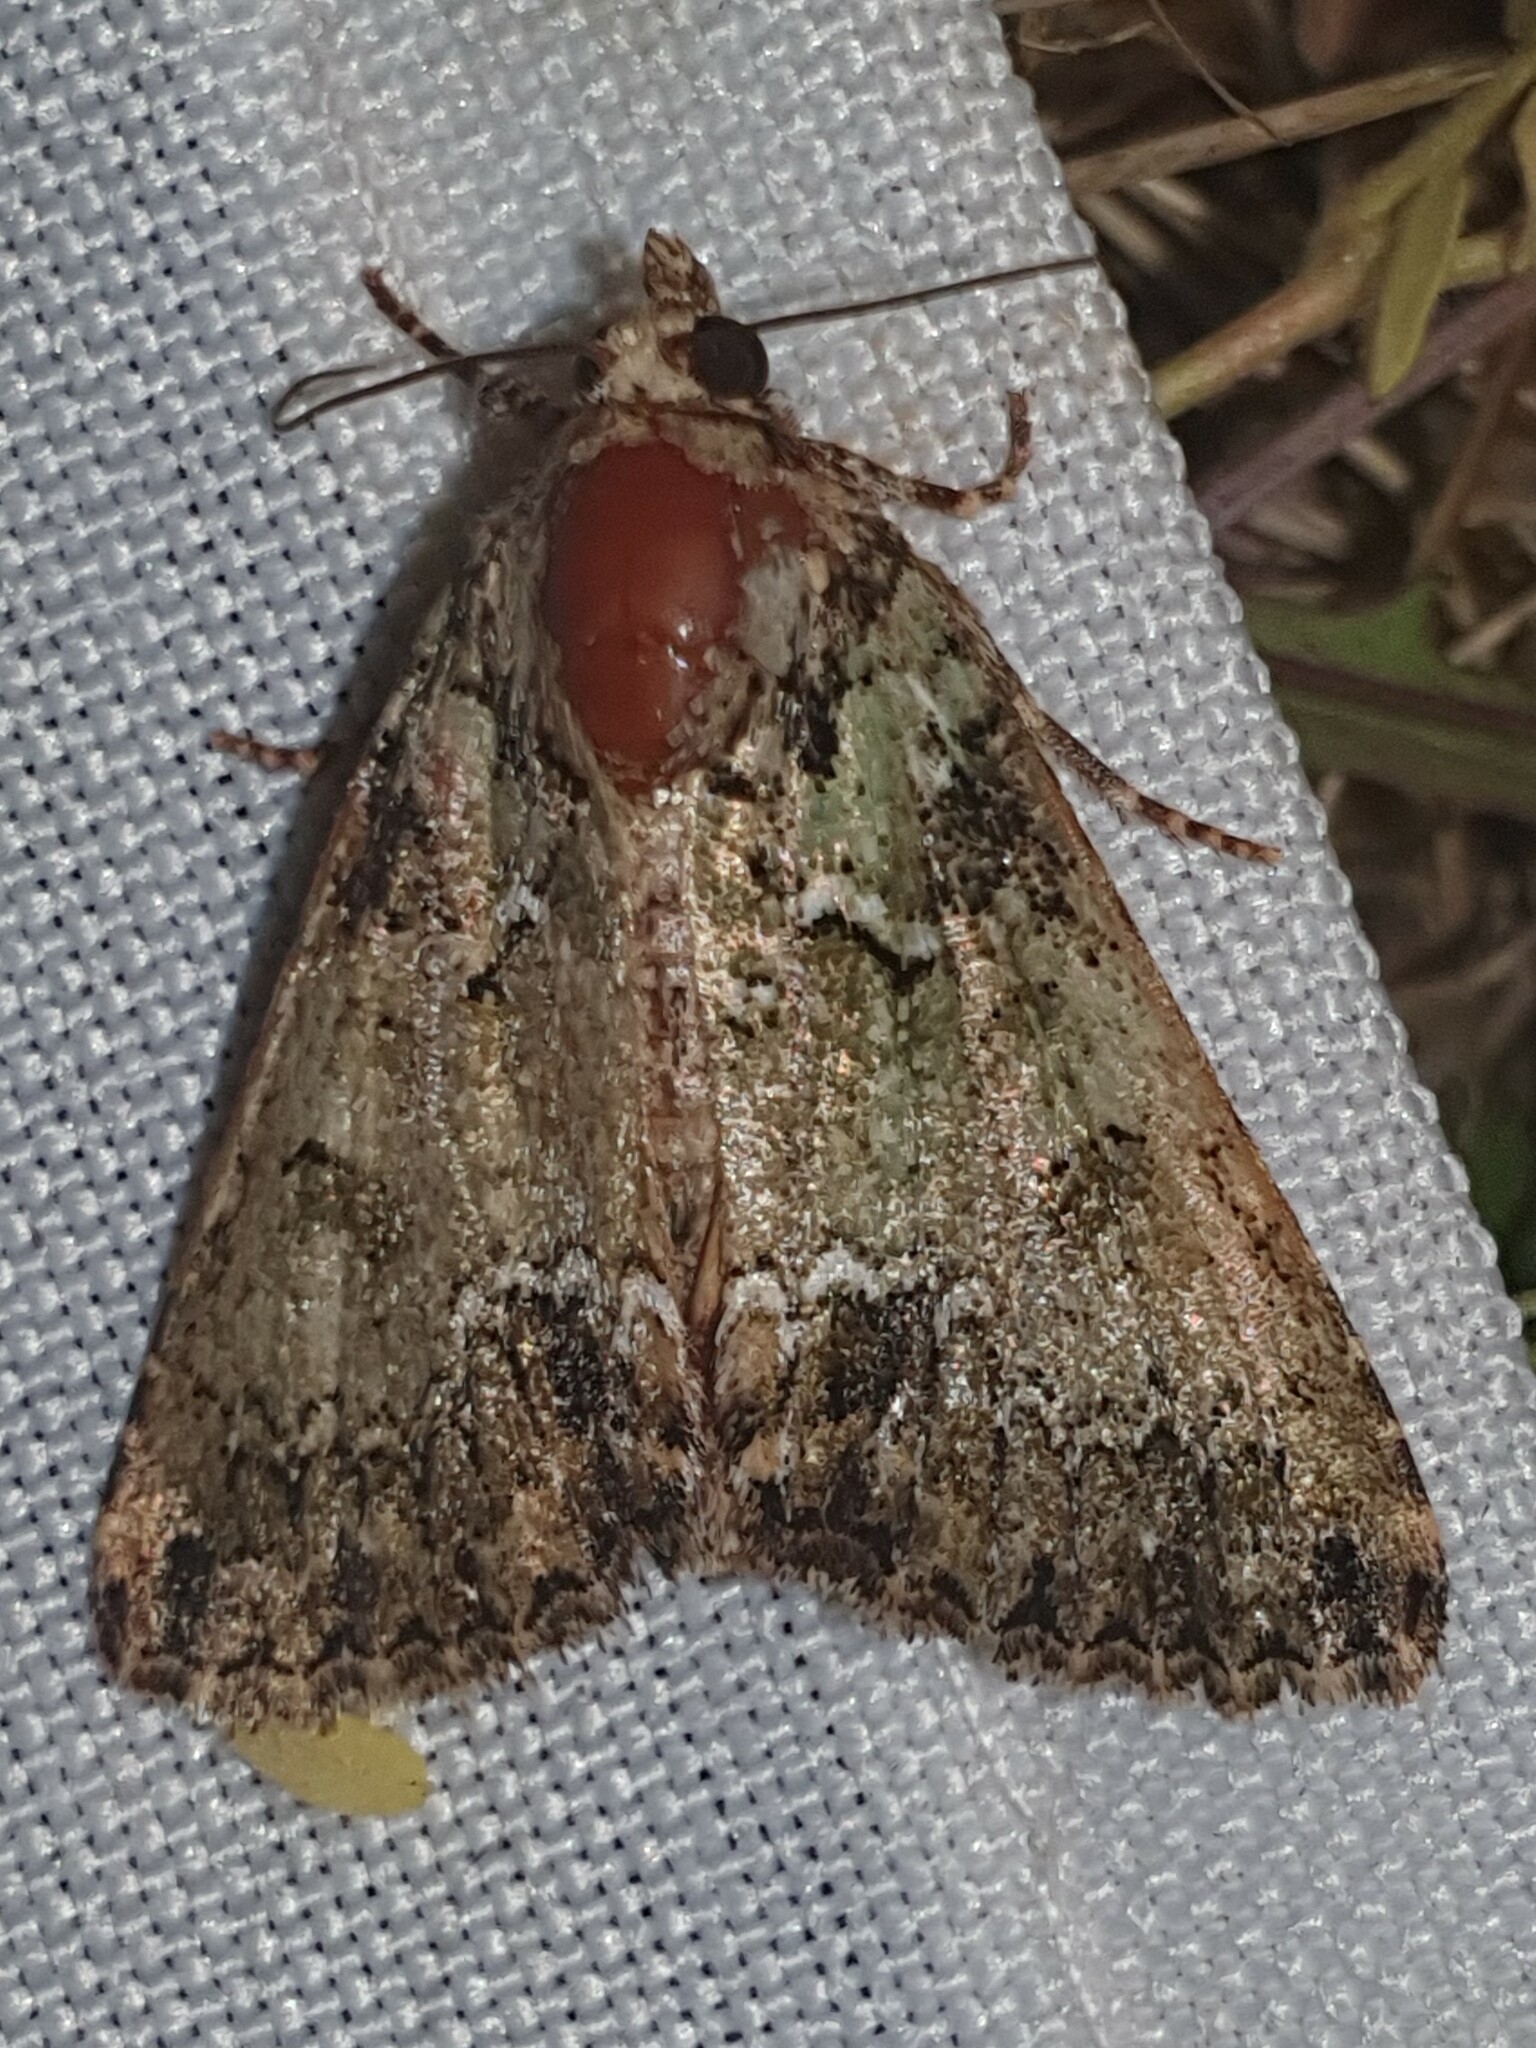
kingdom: Animalia
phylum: Arthropoda
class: Insecta
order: Lepidoptera
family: Noctuidae
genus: Polyphaenis
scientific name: Polyphaenis sericata
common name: Guernsey underwing
